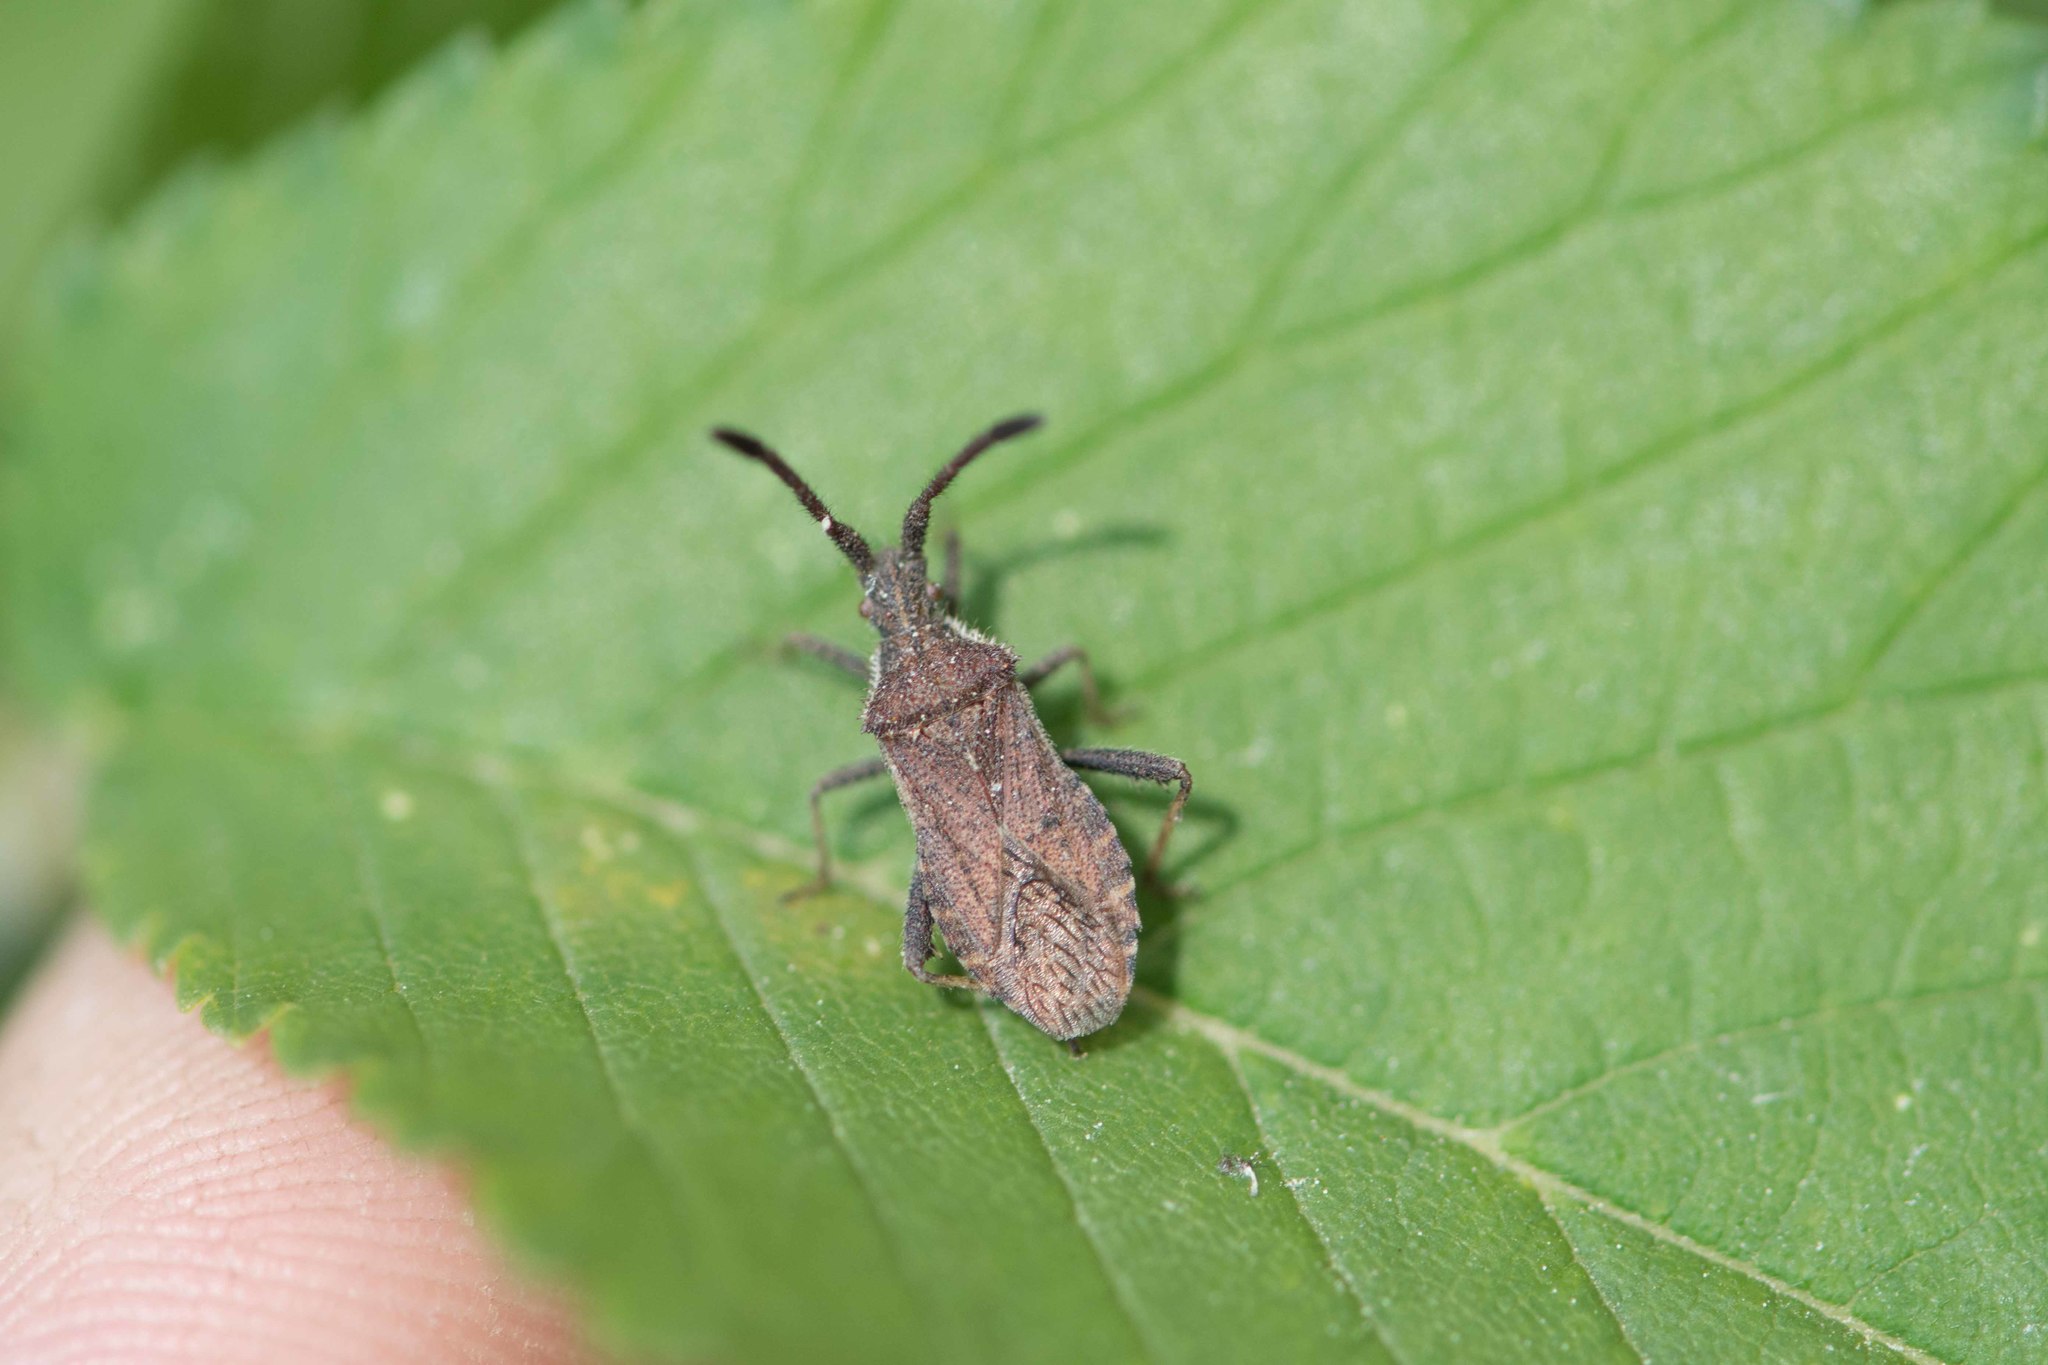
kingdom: Animalia
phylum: Arthropoda
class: Insecta
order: Hemiptera
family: Coreidae
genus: Coriomeris
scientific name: Coriomeris denticulatus
